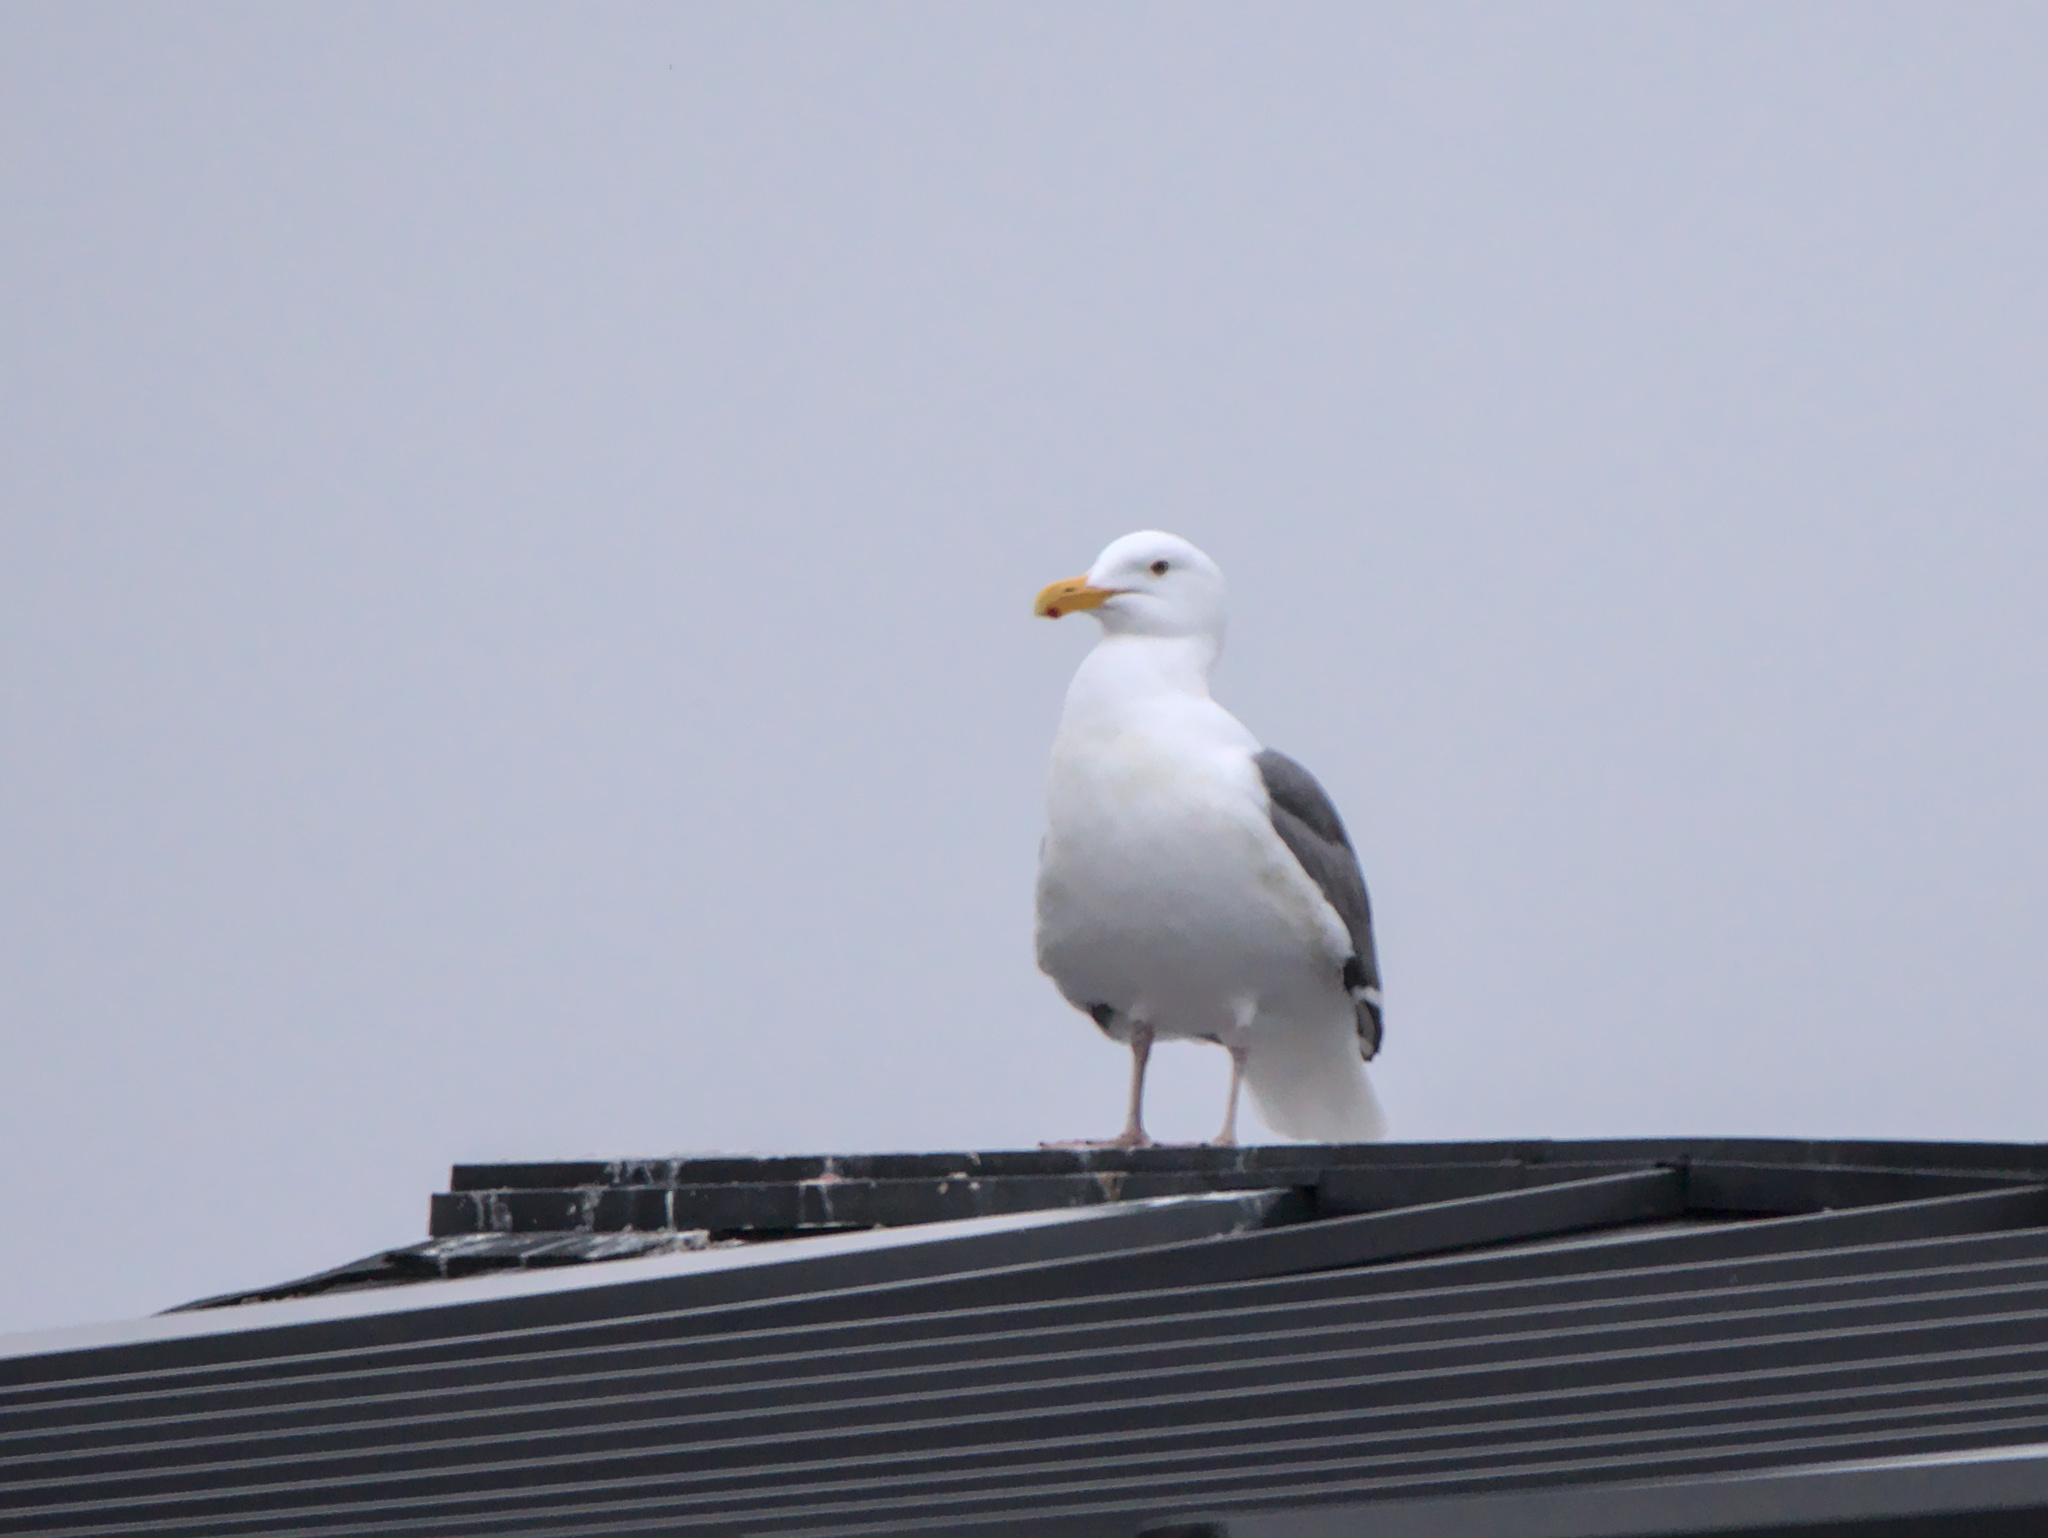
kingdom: Animalia
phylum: Chordata
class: Aves
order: Charadriiformes
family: Laridae
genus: Larus
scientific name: Larus occidentalis
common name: Western gull
